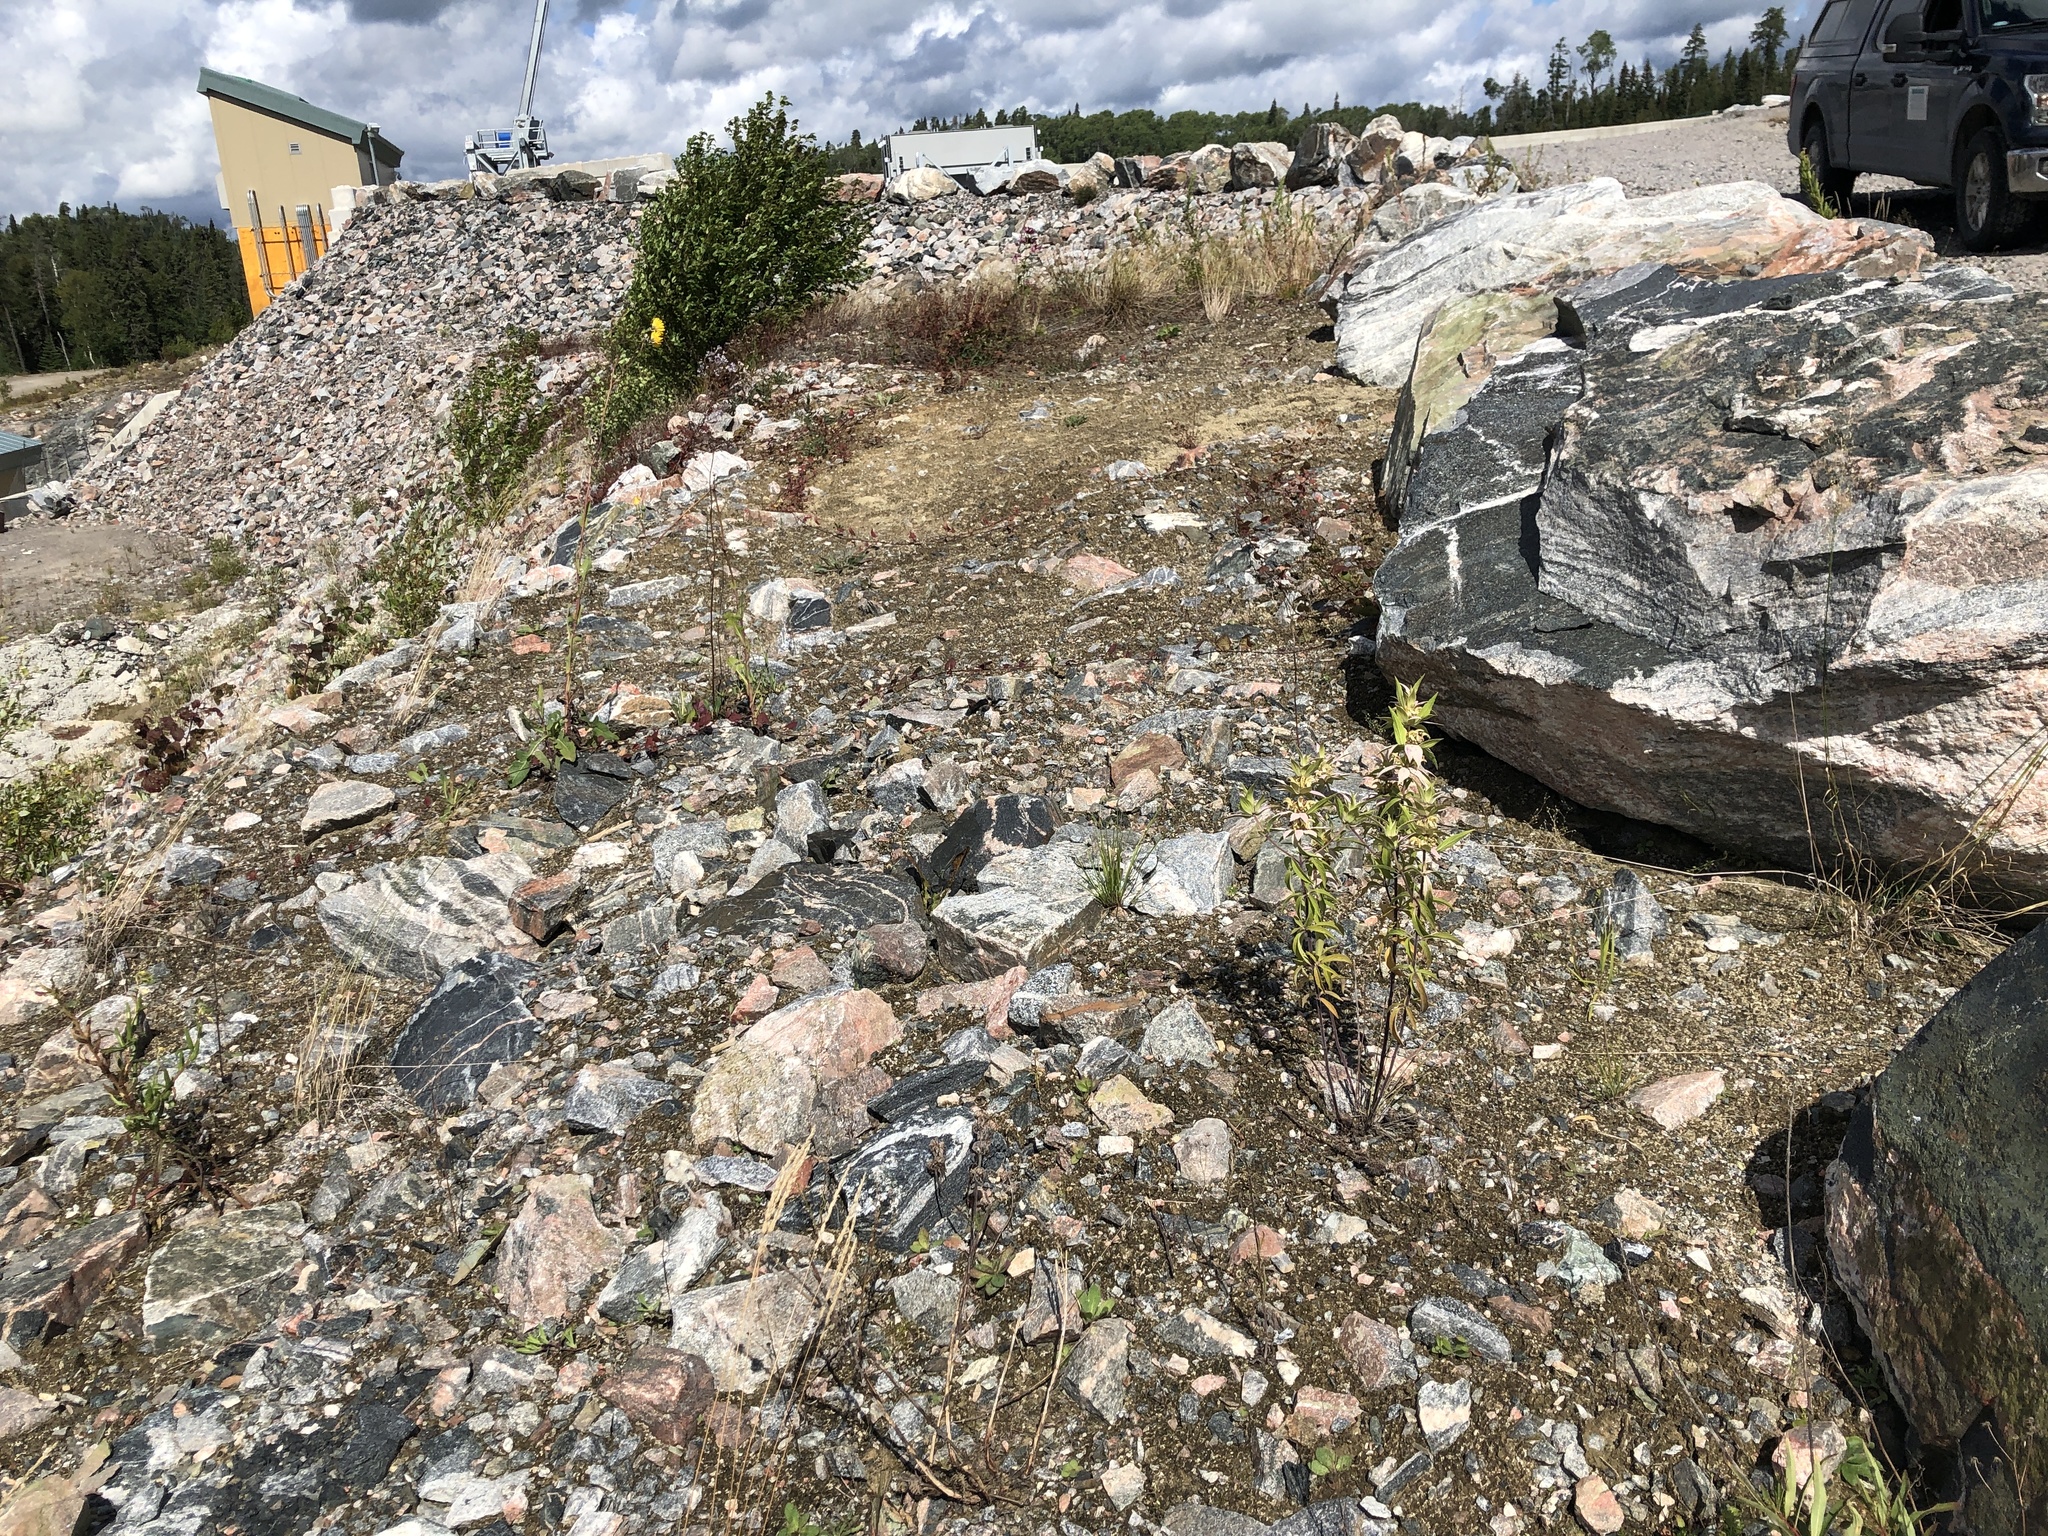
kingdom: Plantae
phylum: Tracheophyta
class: Magnoliopsida
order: Lamiales
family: Lamiaceae
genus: Monarda
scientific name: Monarda punctata
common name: Dotted monarda
